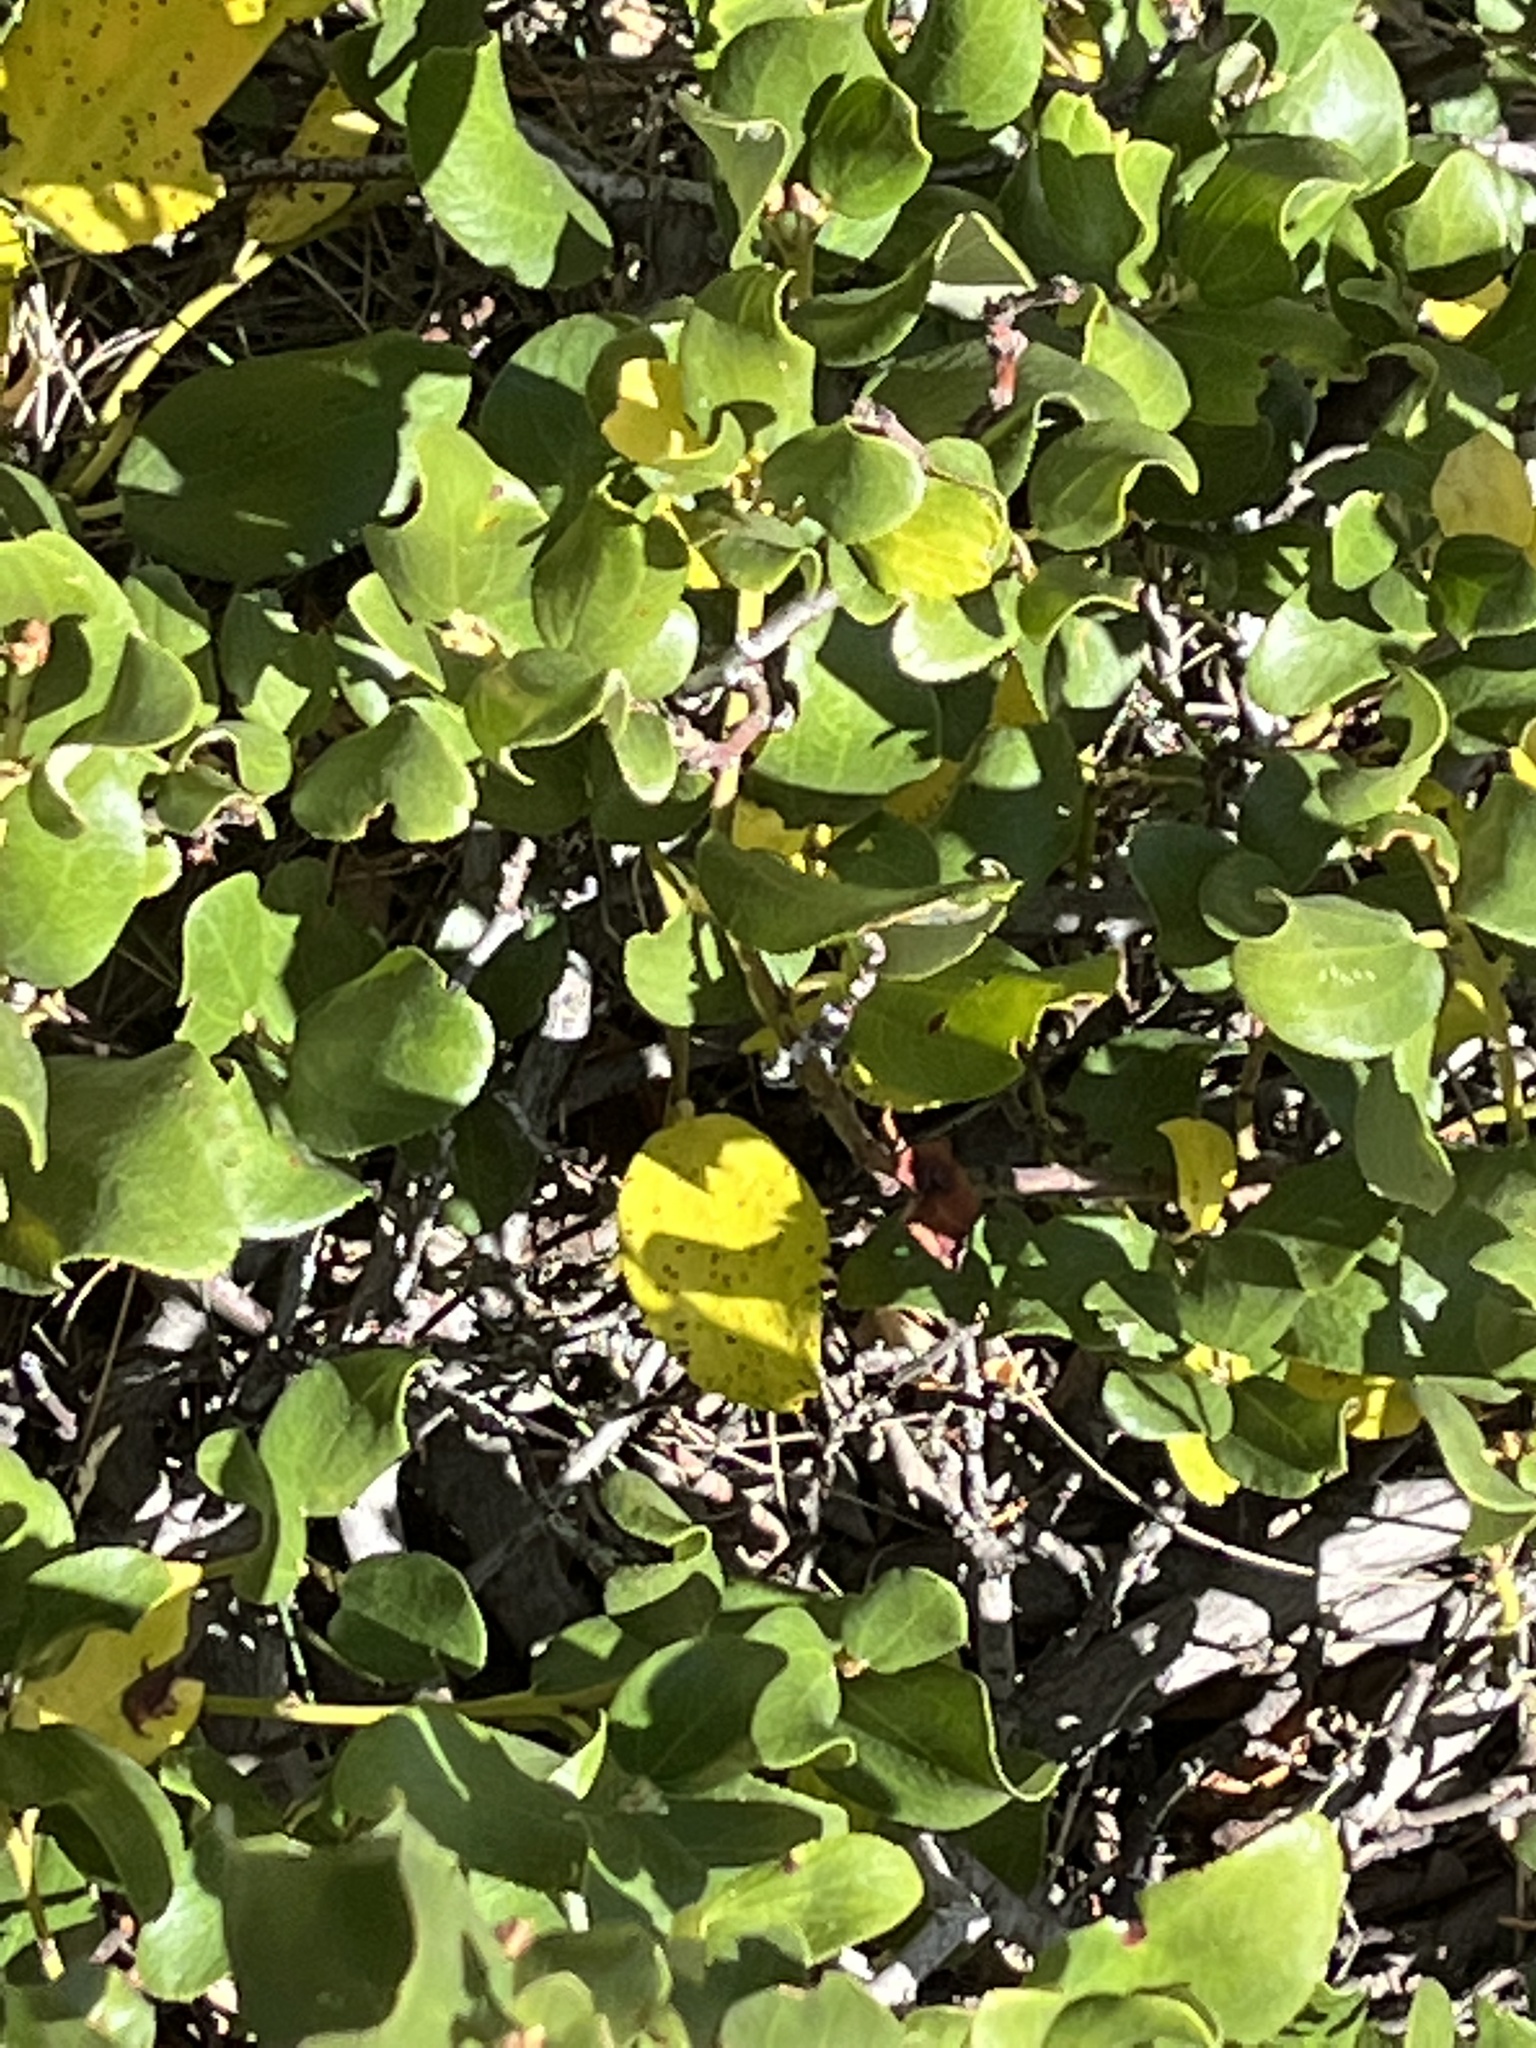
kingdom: Plantae
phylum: Tracheophyta
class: Magnoliopsida
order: Rosales
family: Rhamnaceae
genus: Ceanothus
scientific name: Ceanothus velutinus
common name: Snowbrush
